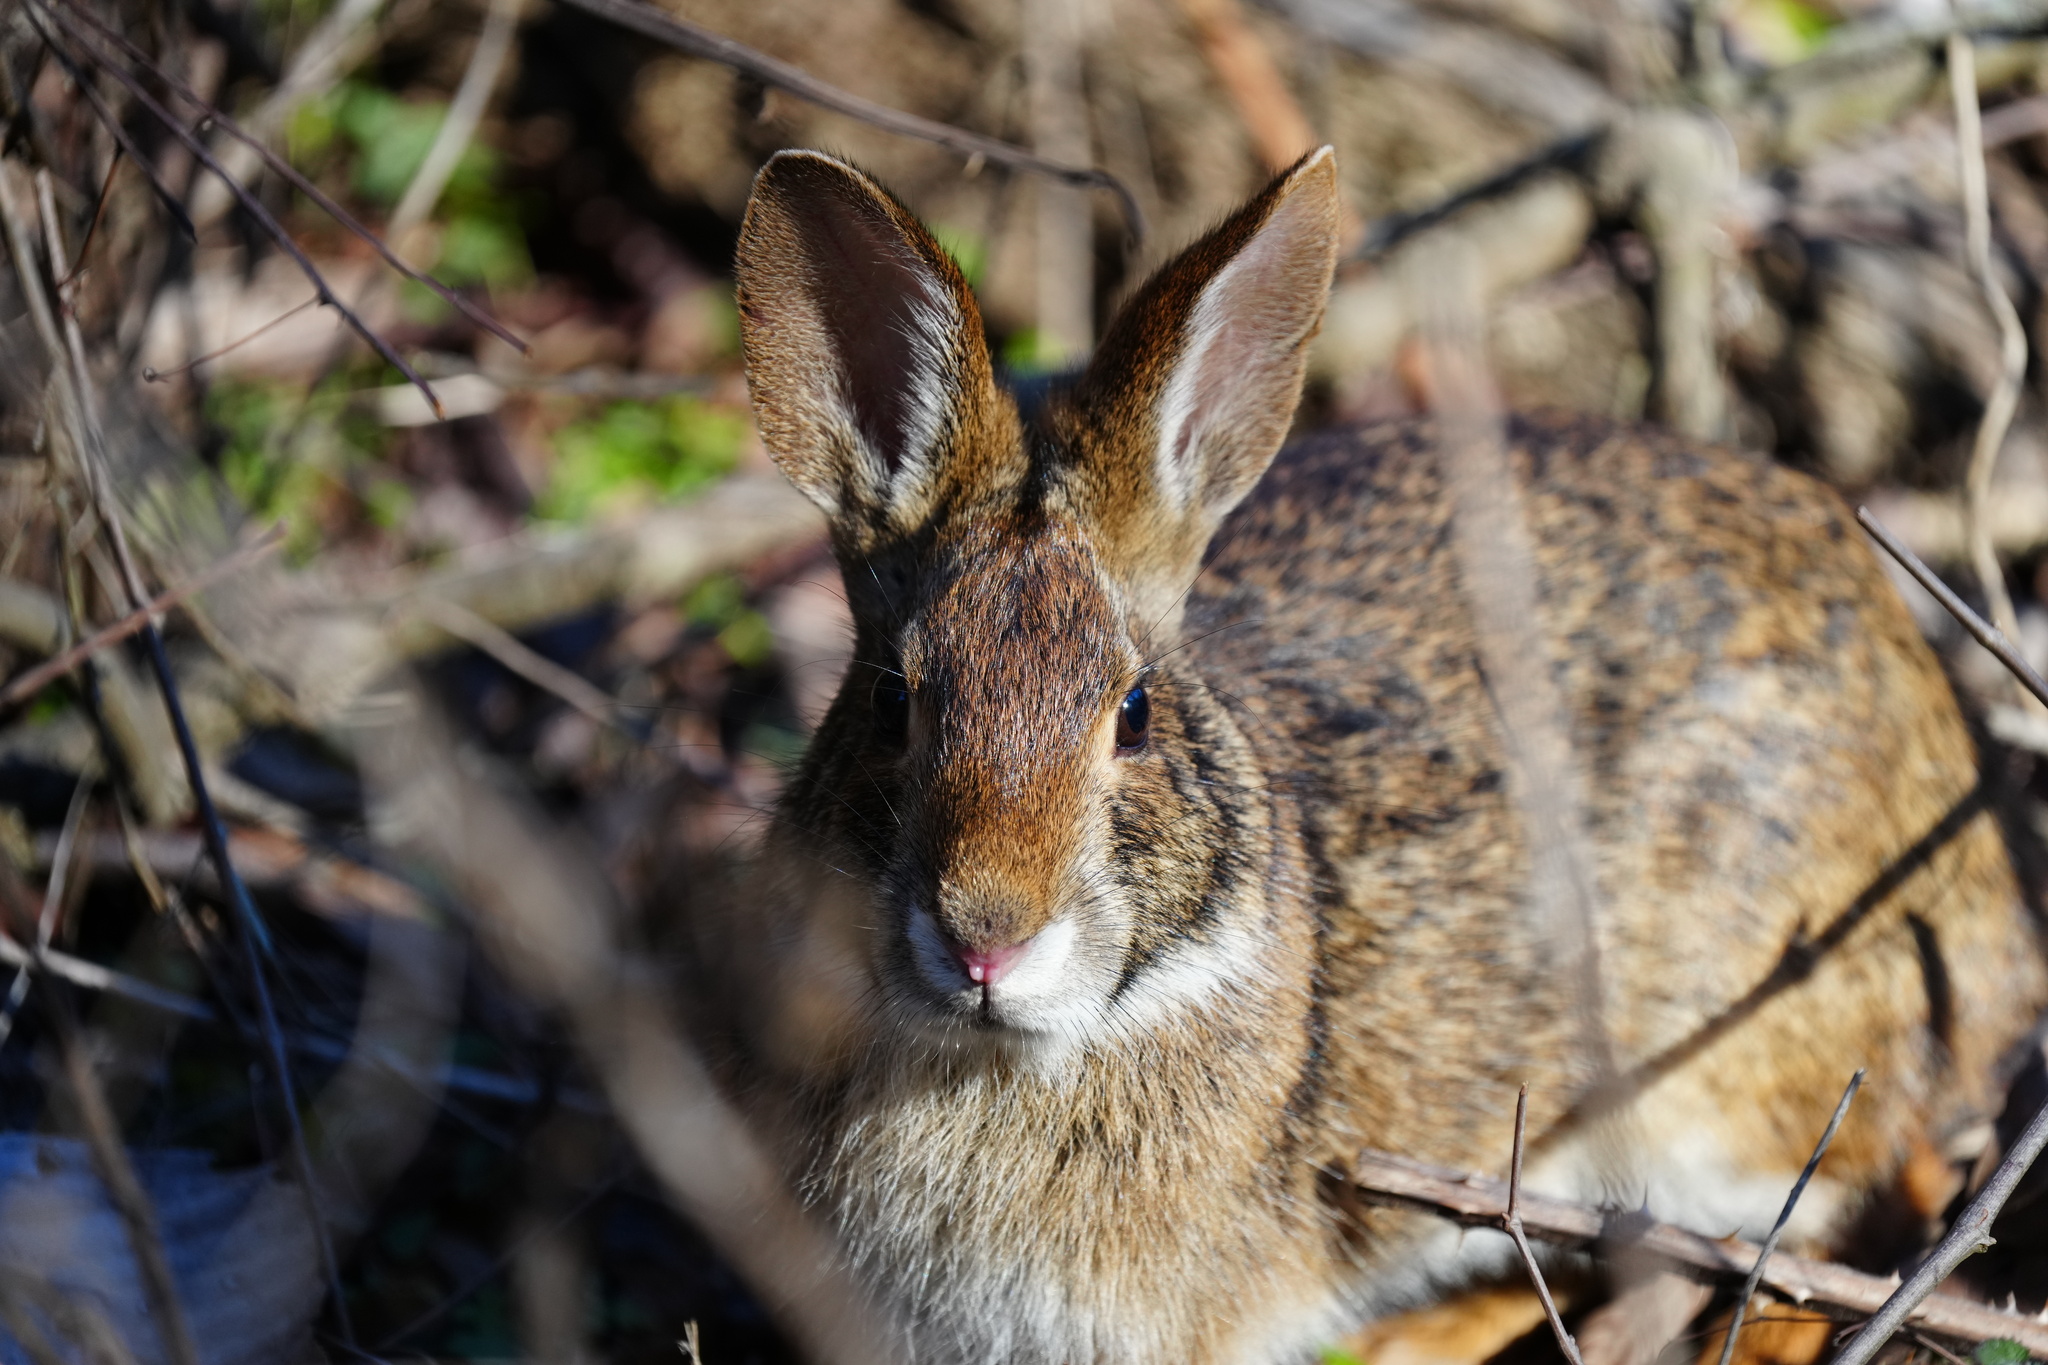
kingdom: Animalia
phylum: Chordata
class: Mammalia
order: Lagomorpha
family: Leporidae
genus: Sylvilagus
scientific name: Sylvilagus aquaticus
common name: Swamp rabbit
